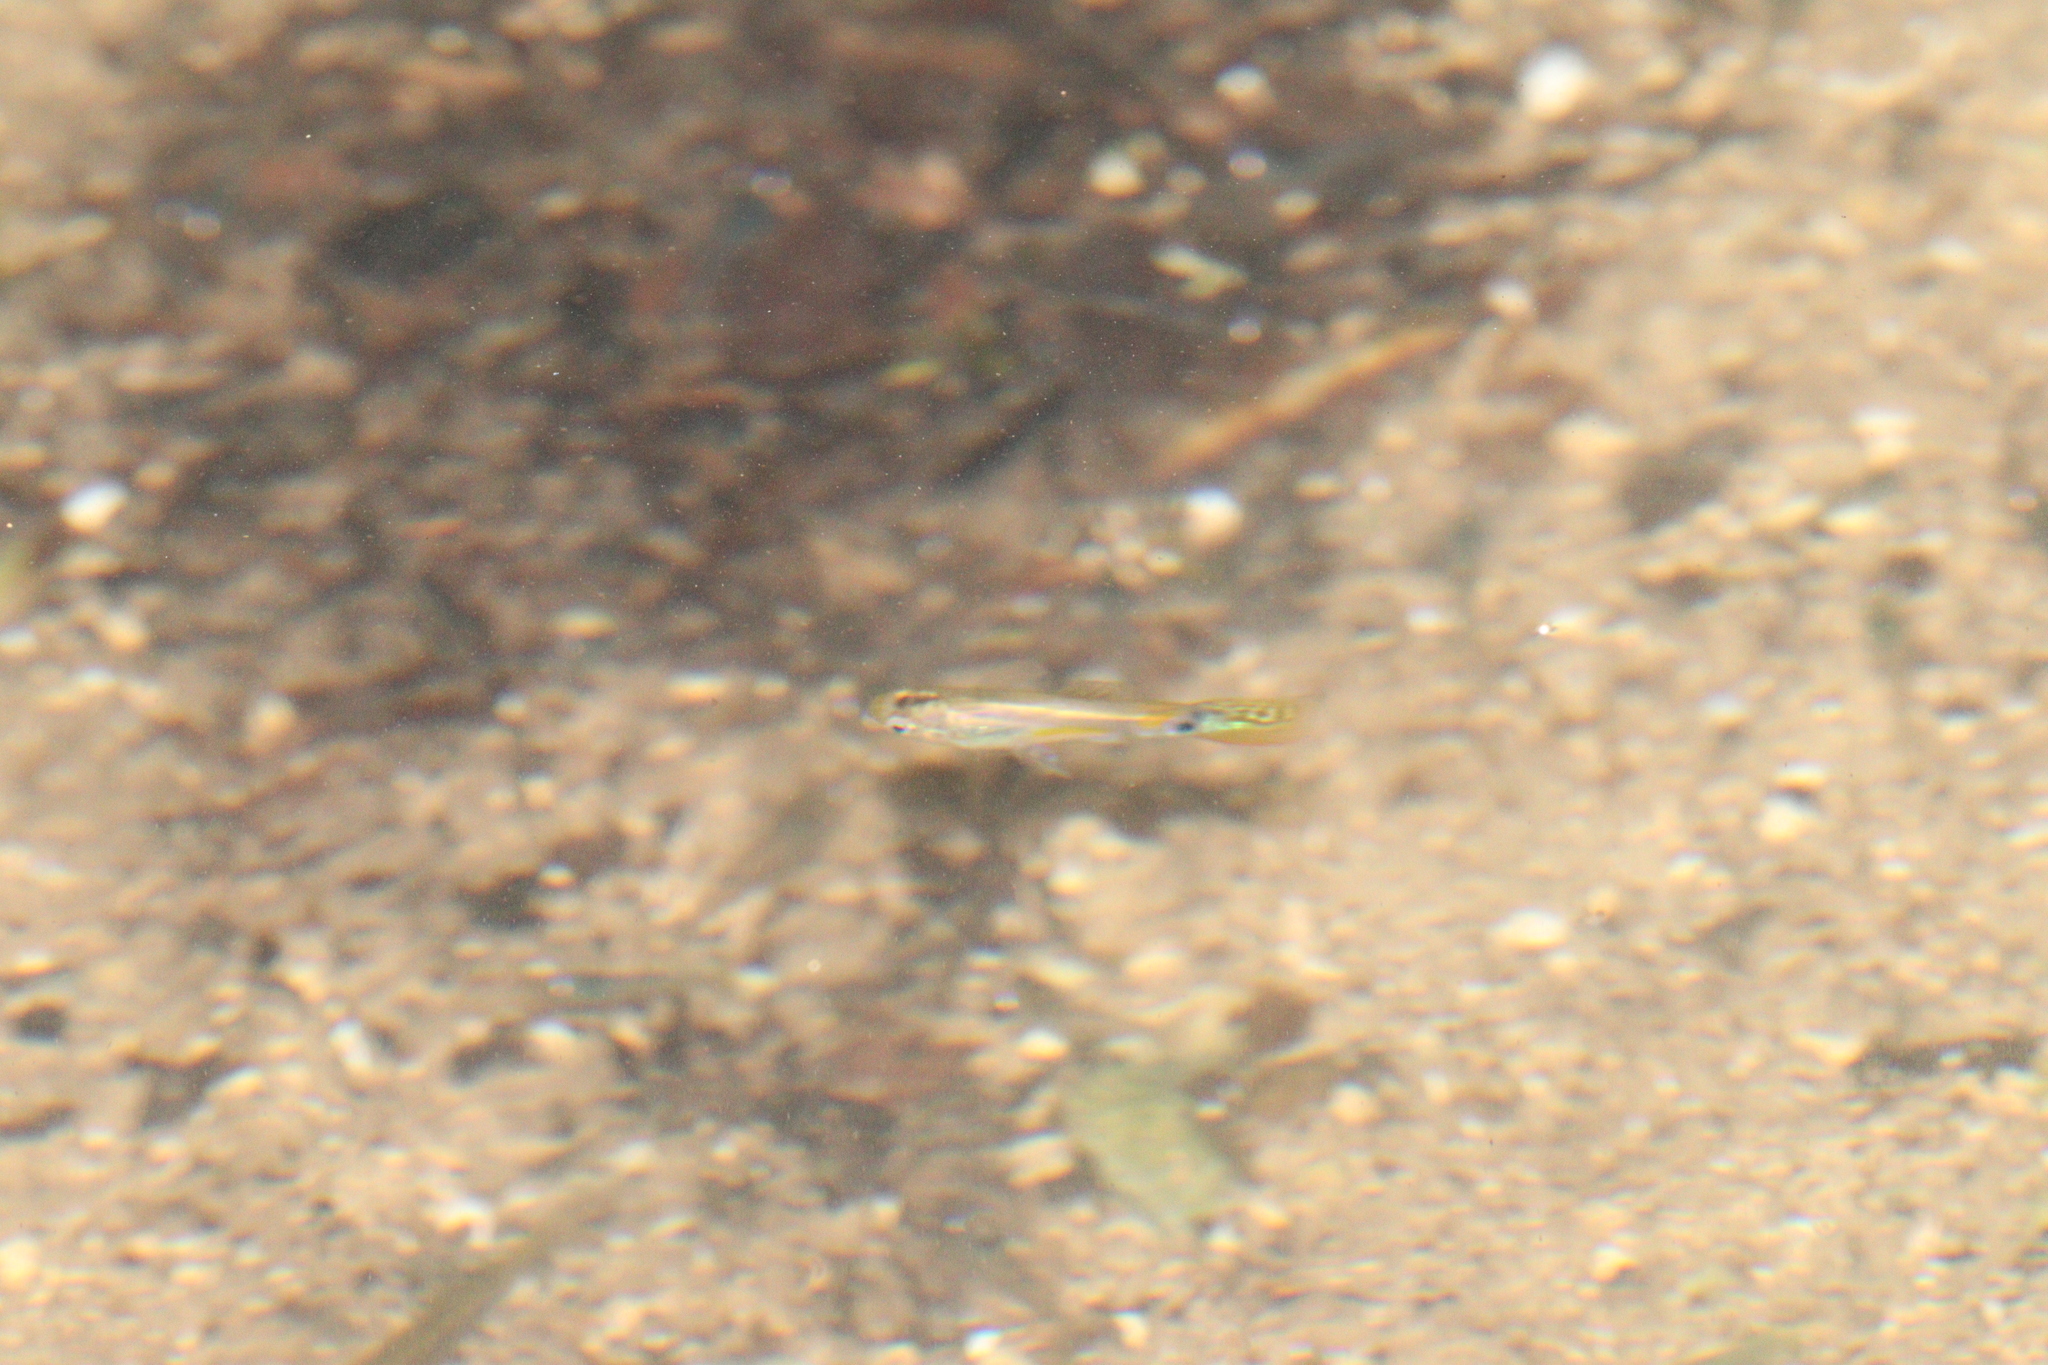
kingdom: Animalia
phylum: Chordata
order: Cyprinodontiformes
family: Poeciliidae
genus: Poecilia
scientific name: Poecilia reticulata
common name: Guppy
